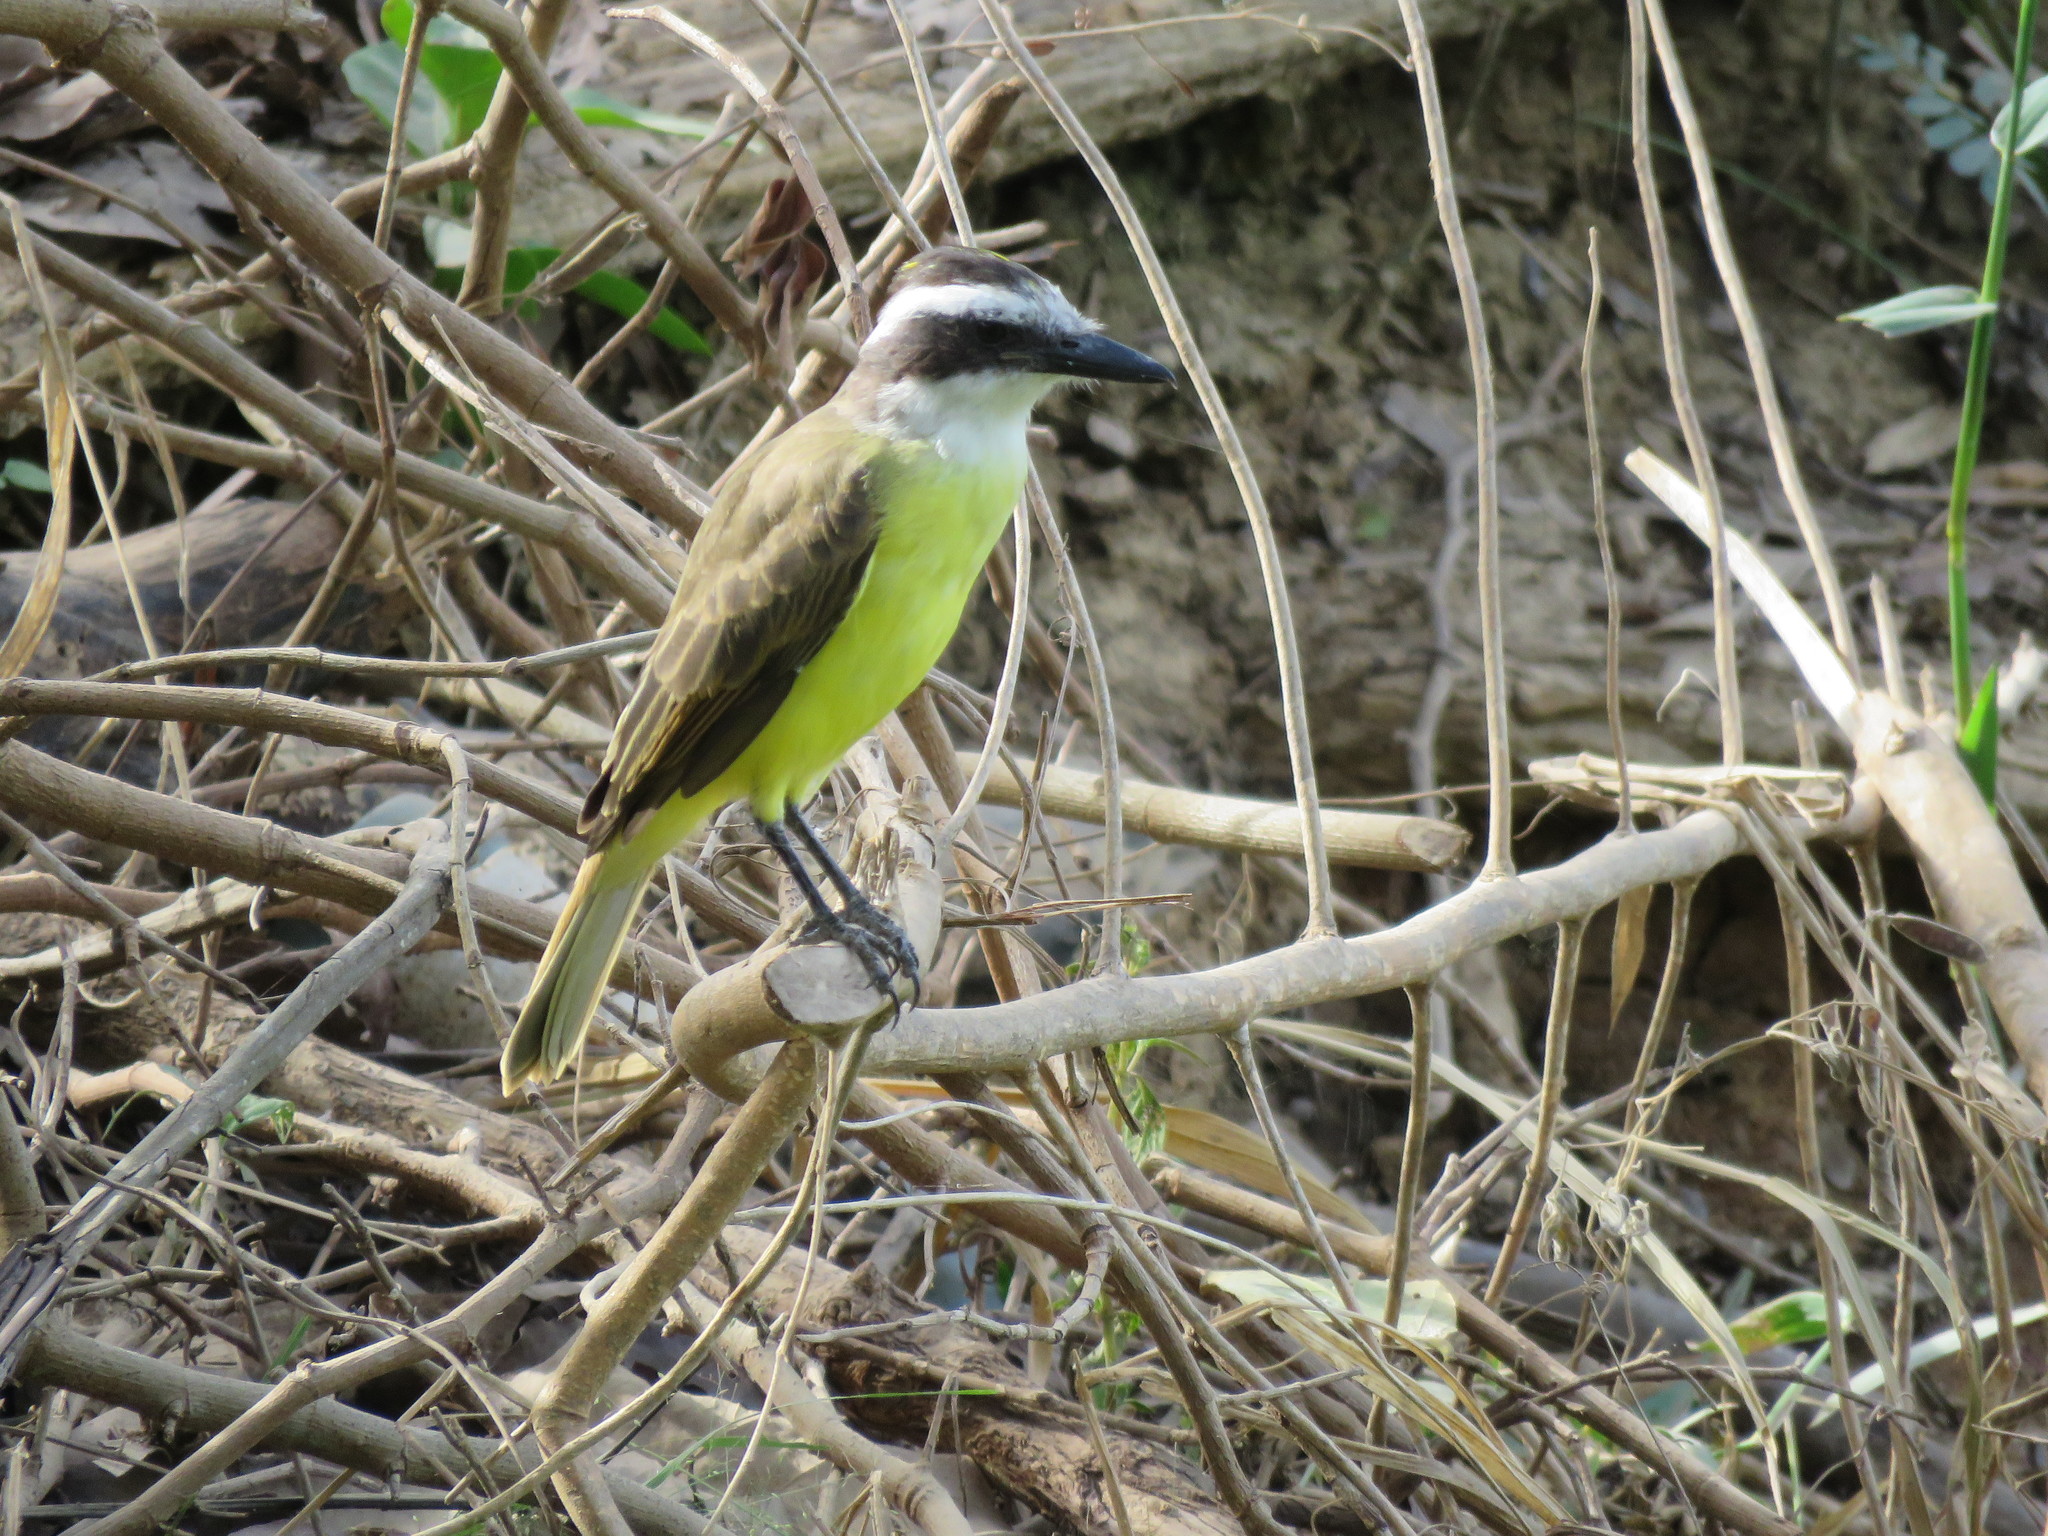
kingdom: Animalia
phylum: Chordata
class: Aves
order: Passeriformes
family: Tyrannidae
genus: Pitangus
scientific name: Pitangus sulphuratus
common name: Great kiskadee
